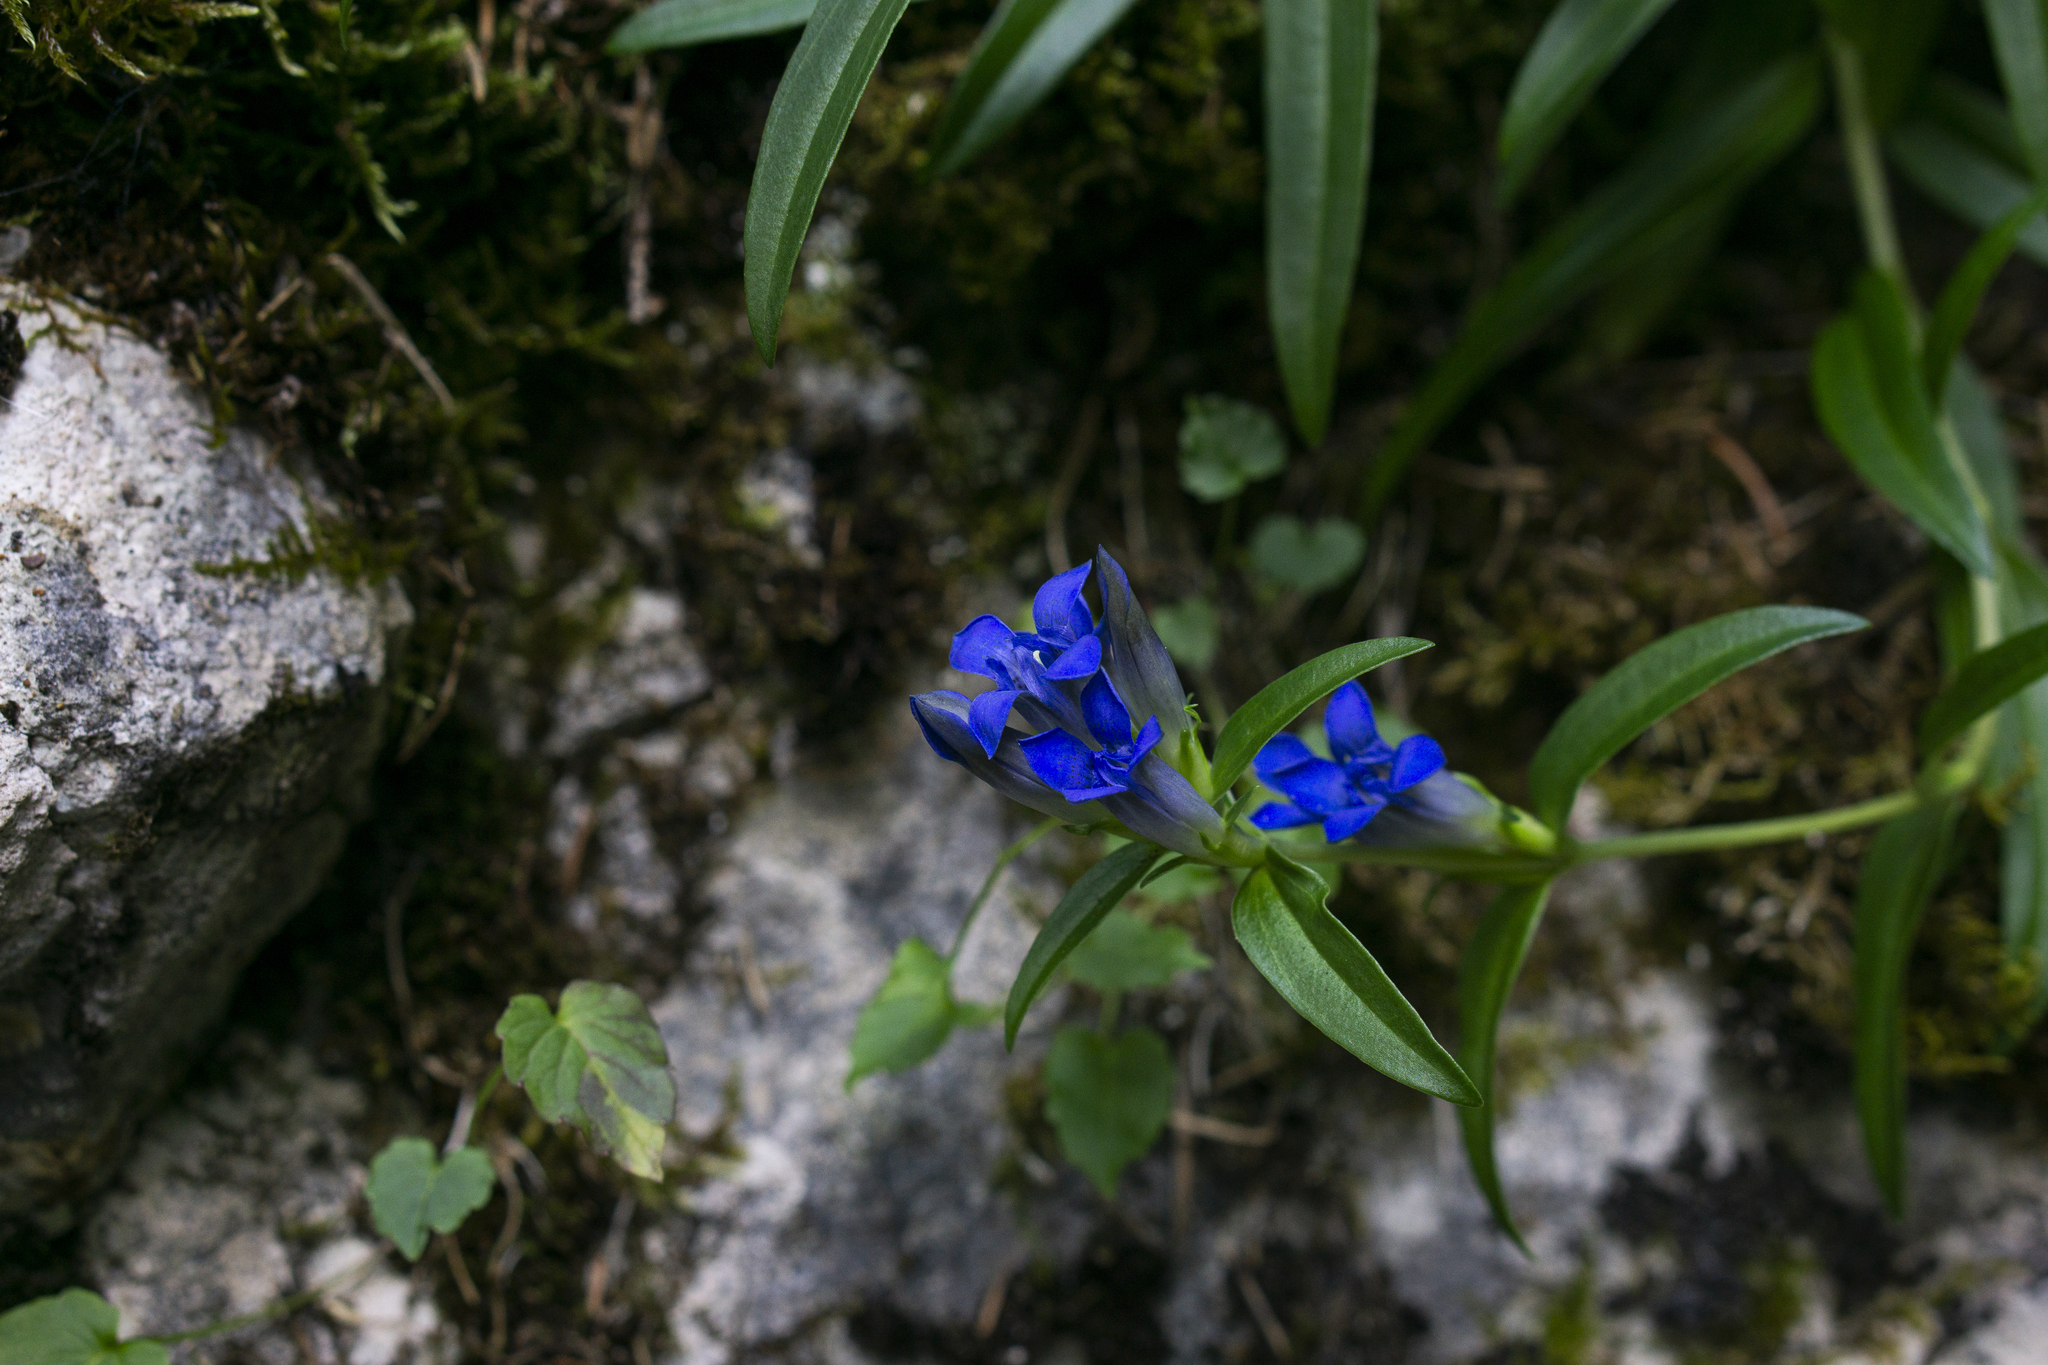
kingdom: Plantae
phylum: Tracheophyta
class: Magnoliopsida
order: Gentianales
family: Gentianaceae
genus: Gentiana
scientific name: Gentiana cruciata
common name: Cross gentian
